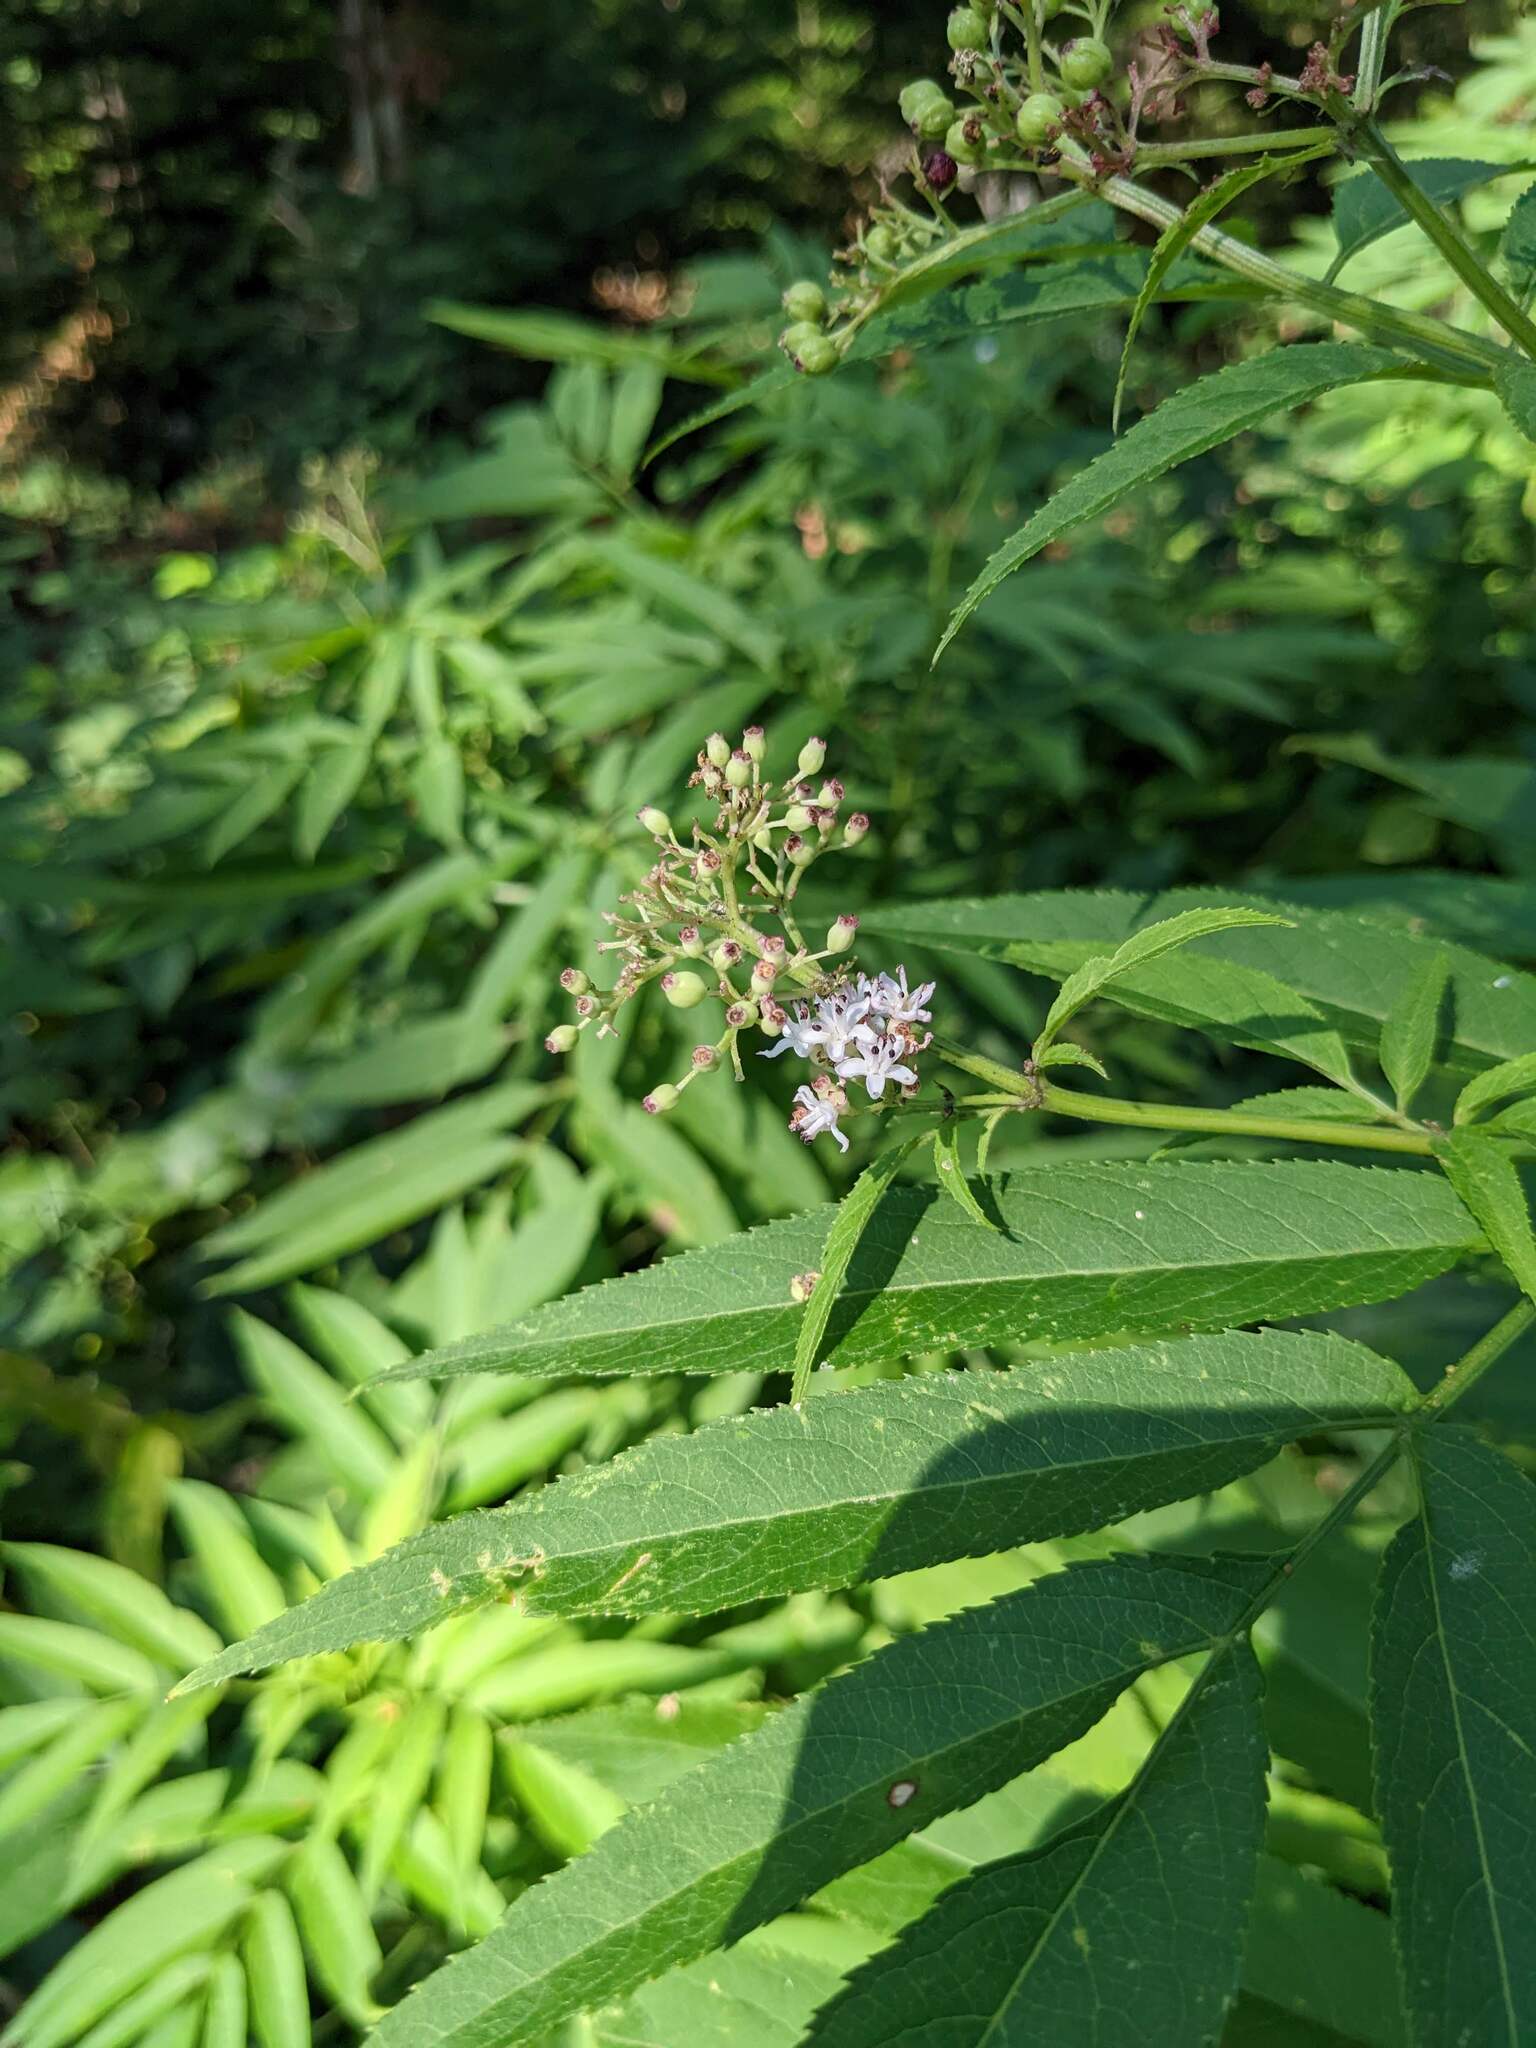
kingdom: Plantae
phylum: Tracheophyta
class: Magnoliopsida
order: Dipsacales
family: Viburnaceae
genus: Sambucus
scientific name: Sambucus ebulus
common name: Dwarf elder
